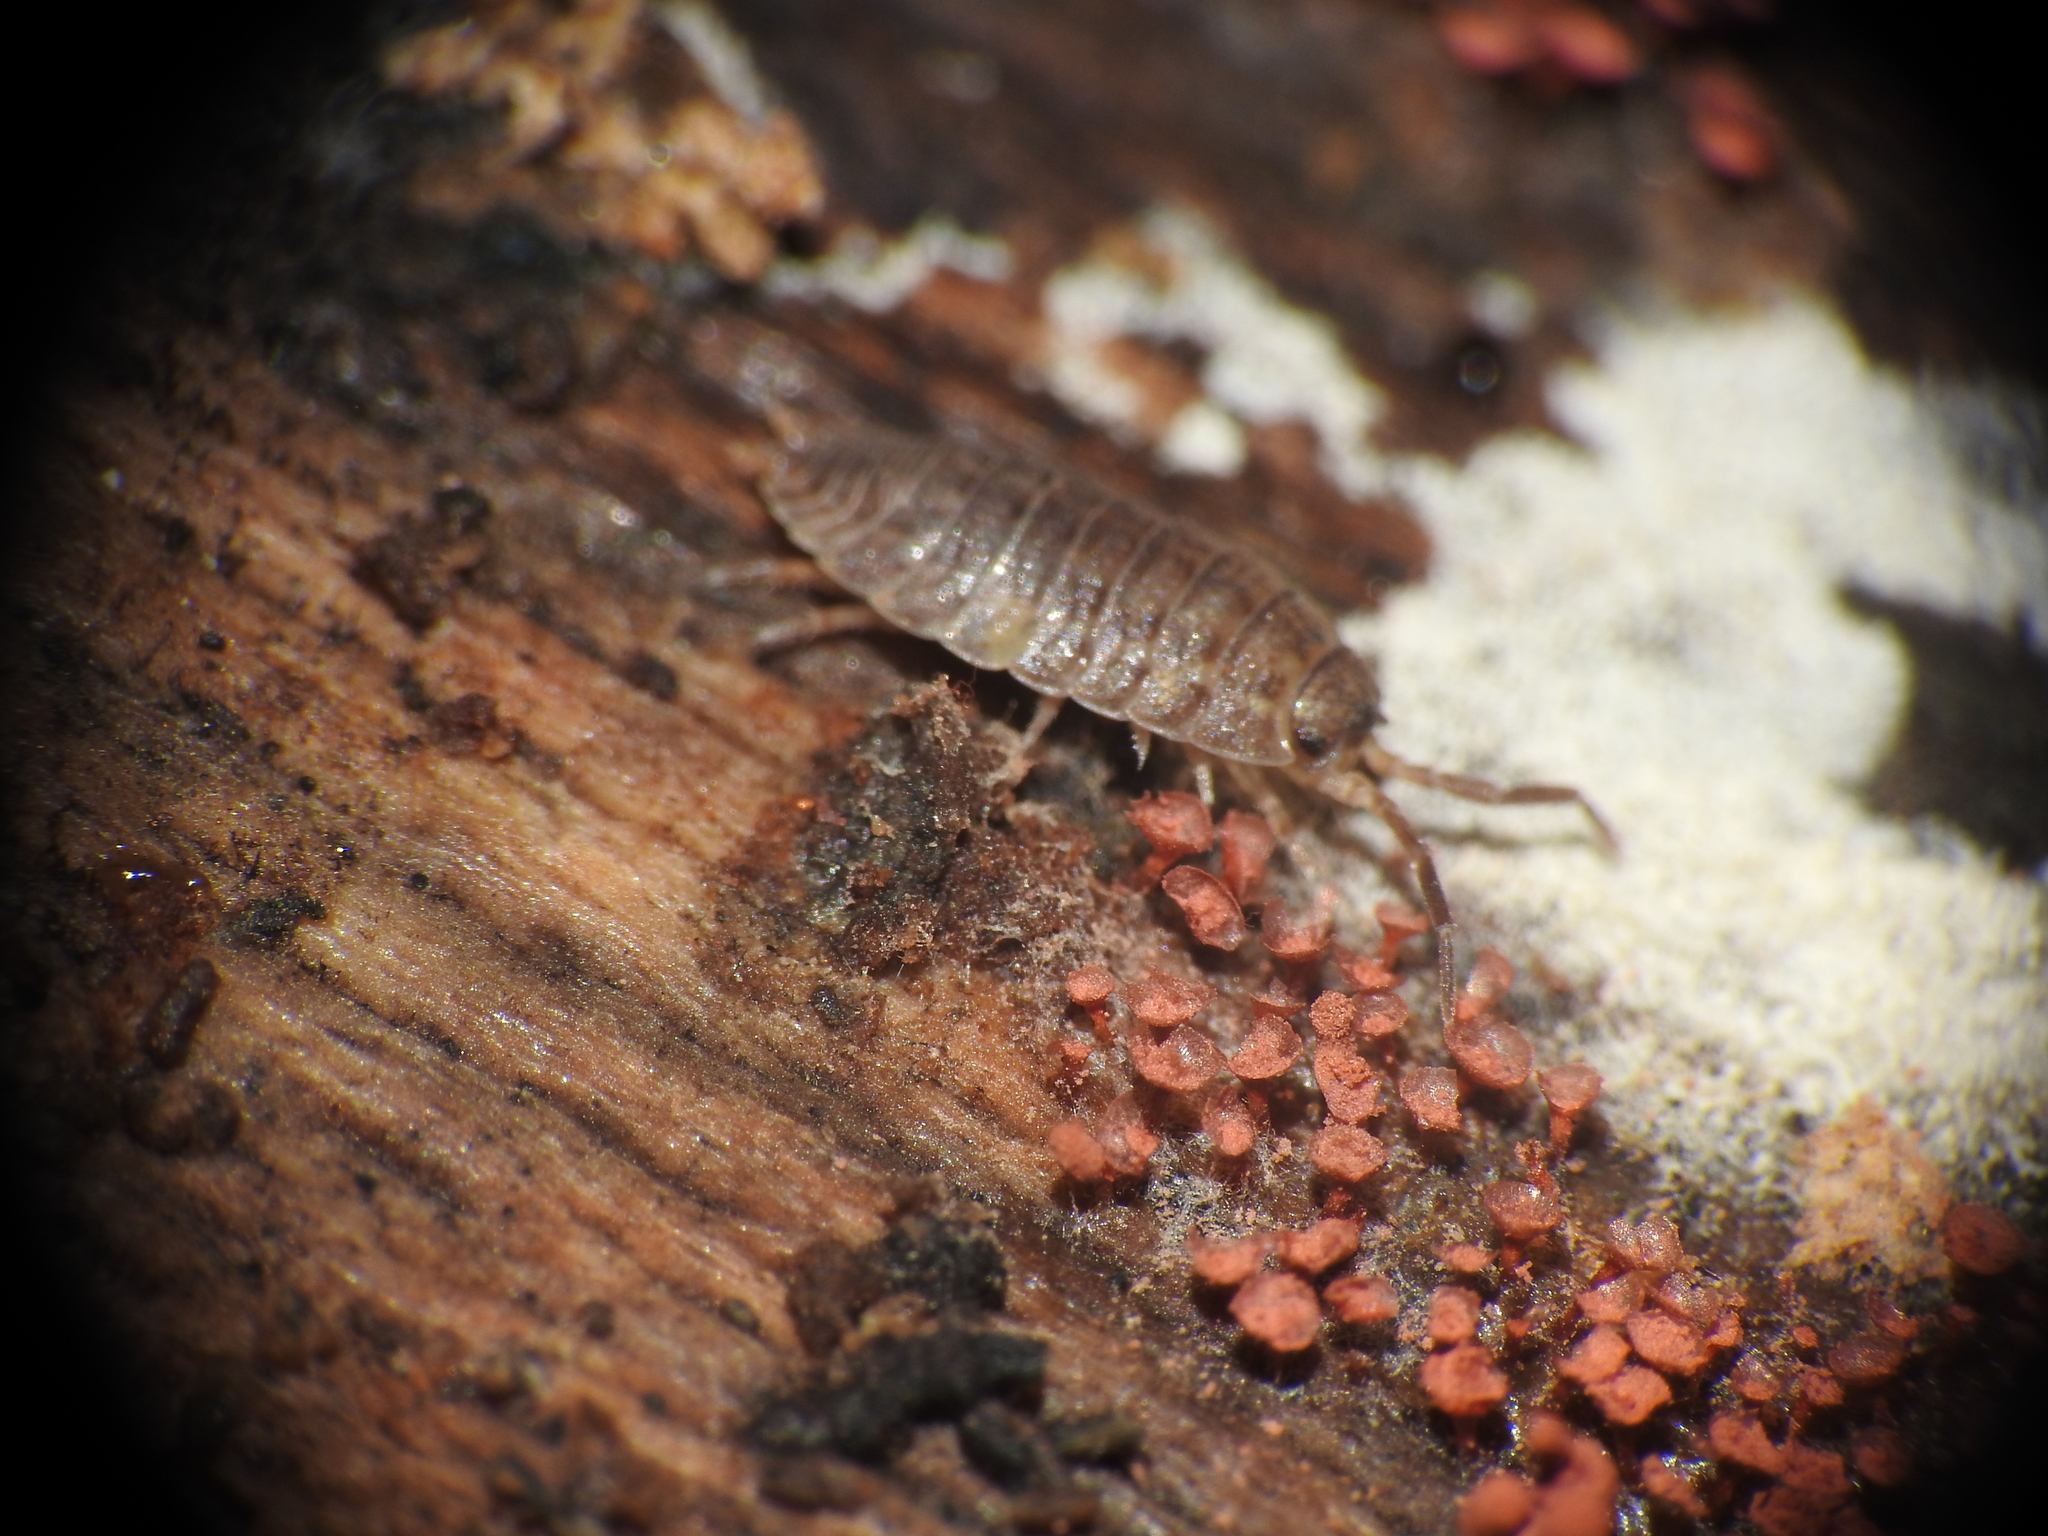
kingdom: Animalia
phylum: Arthropoda
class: Malacostraca
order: Isopoda
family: Porcellionidae
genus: Porcellio
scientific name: Porcellio scaber
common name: Common rough woodlouse
